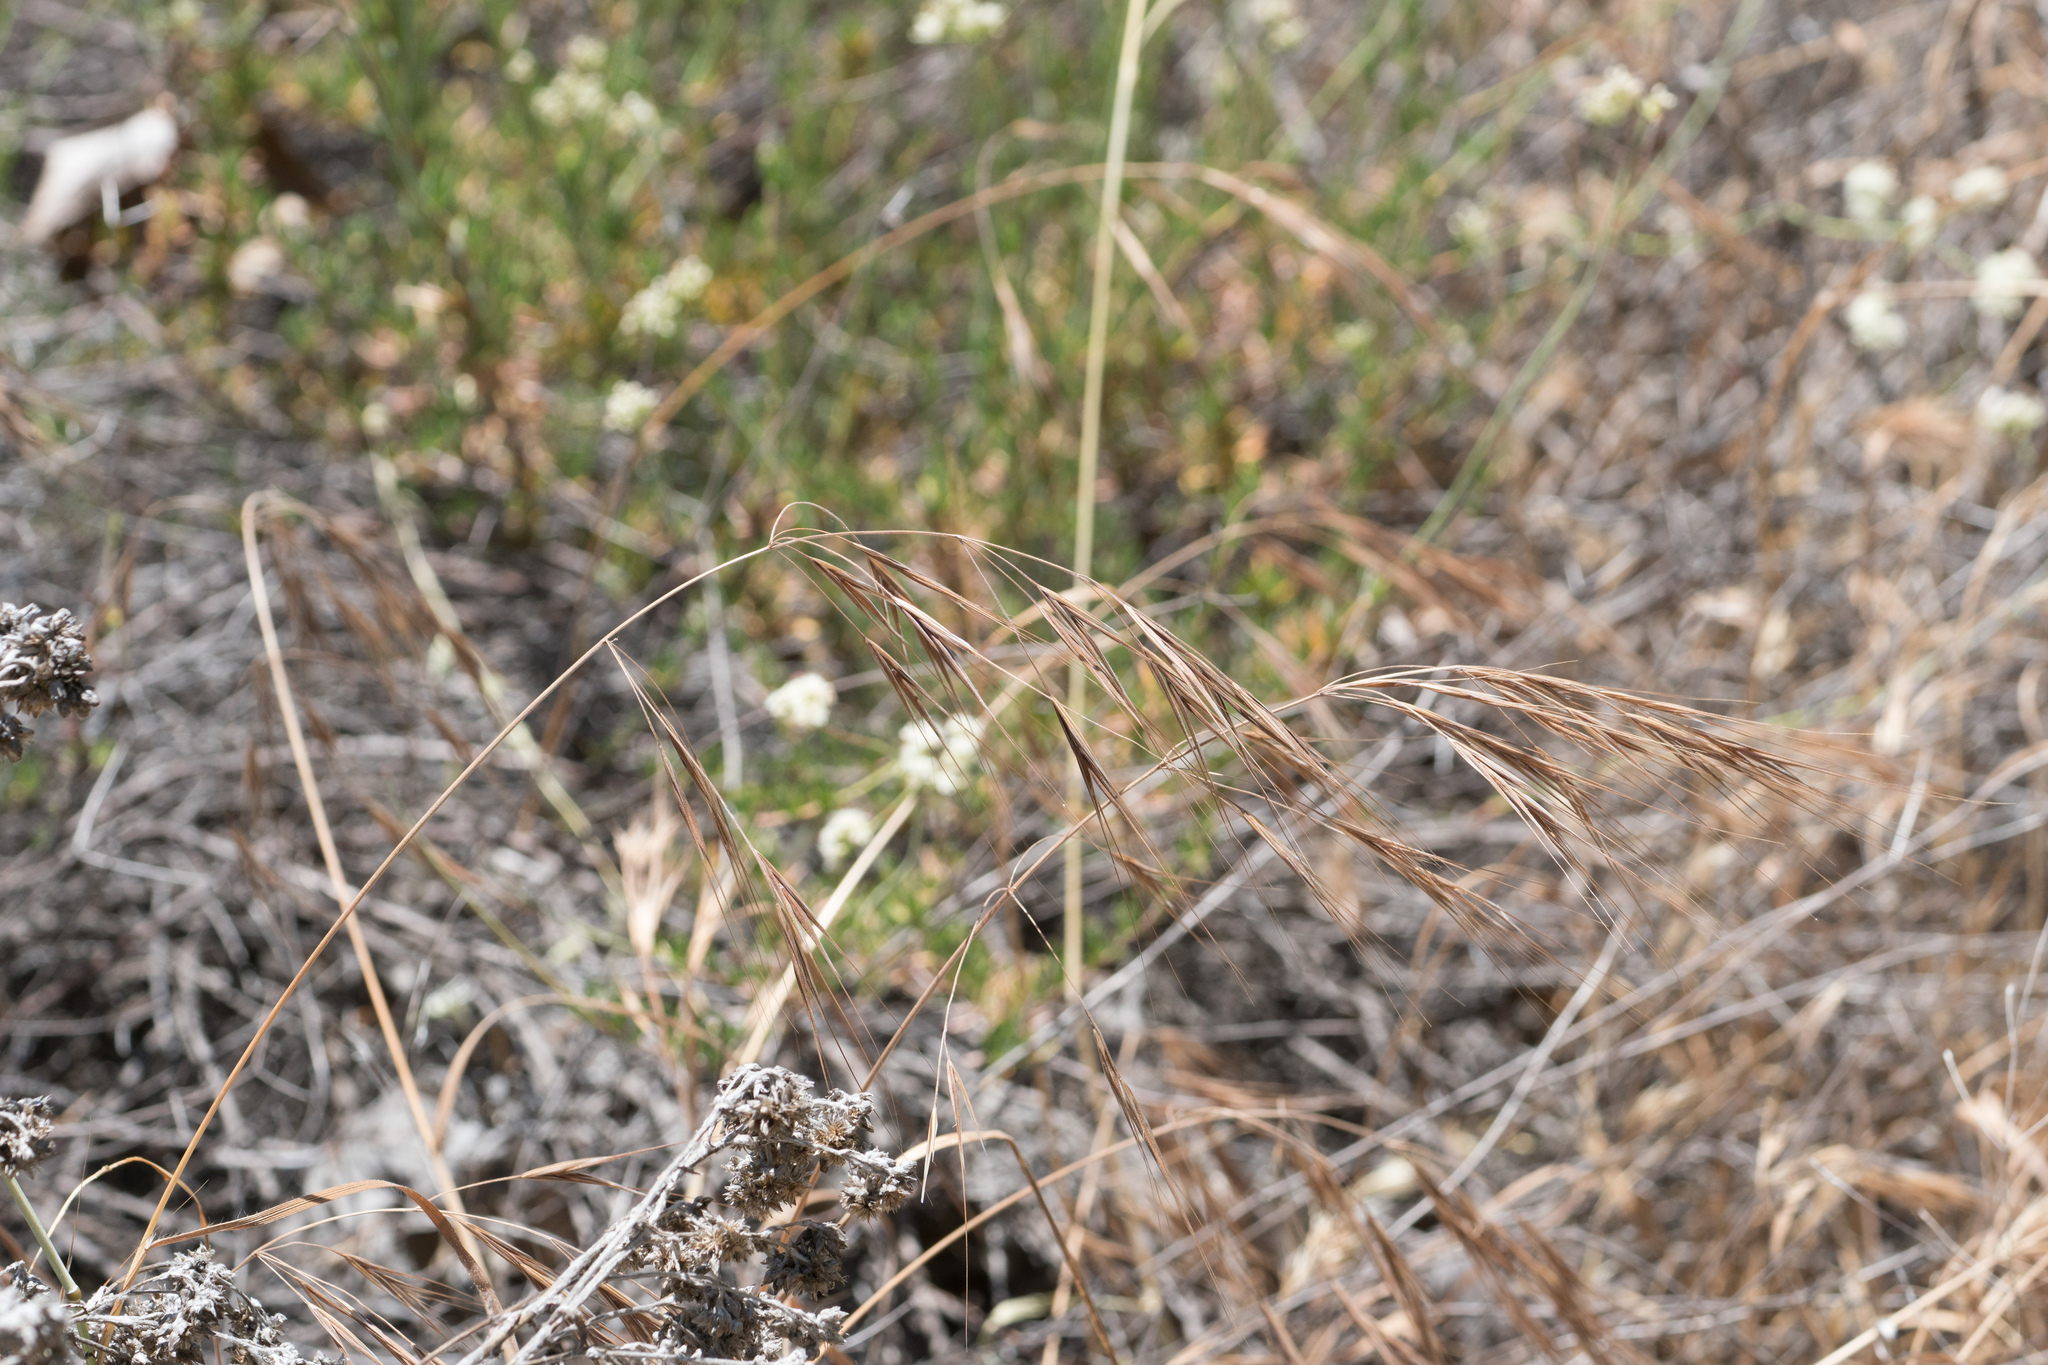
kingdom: Plantae
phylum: Tracheophyta
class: Liliopsida
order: Poales
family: Poaceae
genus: Bromus
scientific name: Bromus diandrus
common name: Ripgut brome
